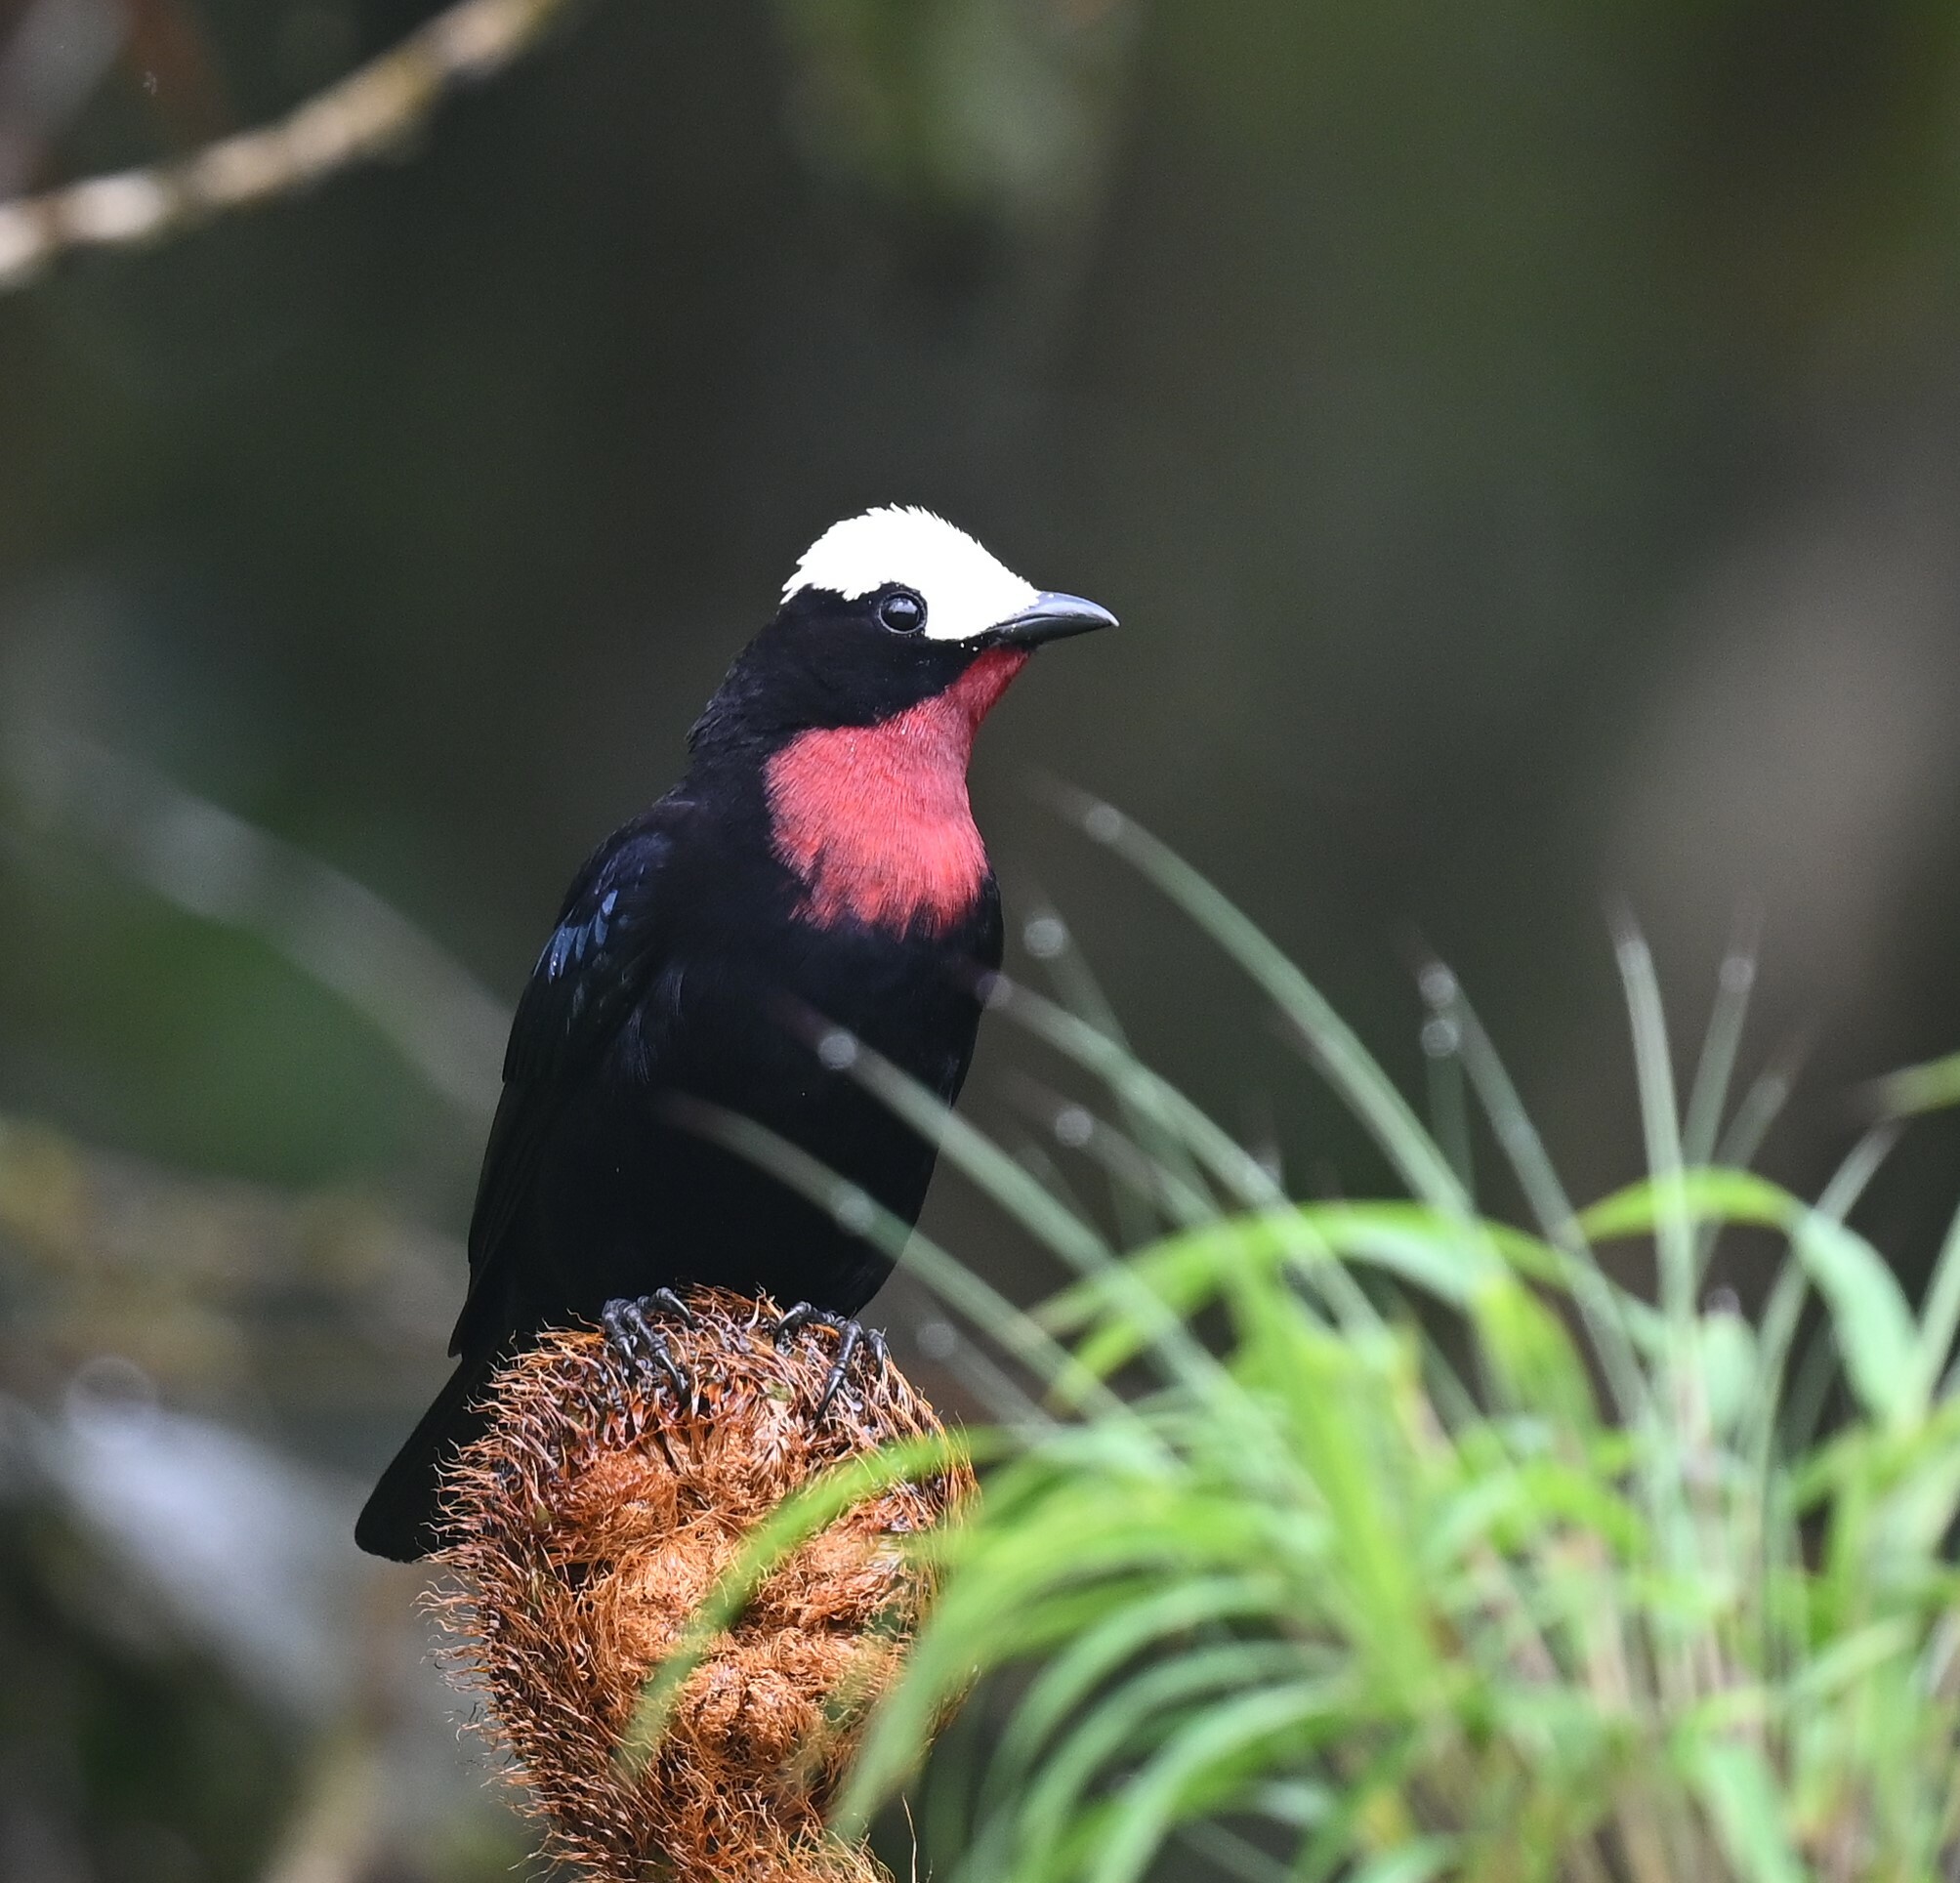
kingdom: Animalia
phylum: Chordata
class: Aves
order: Passeriformes
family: Thraupidae
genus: Sericossypha
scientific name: Sericossypha albocristata
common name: White-capped tanager
